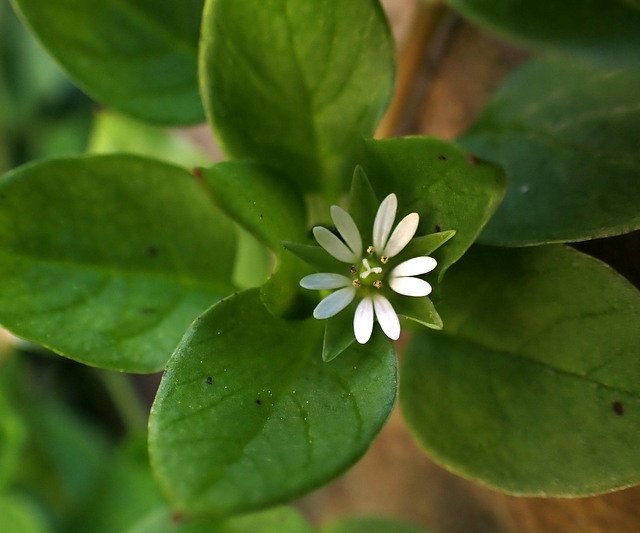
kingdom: Plantae
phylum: Tracheophyta
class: Magnoliopsida
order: Caryophyllales
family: Caryophyllaceae
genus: Stellaria
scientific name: Stellaria media
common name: Common chickweed
